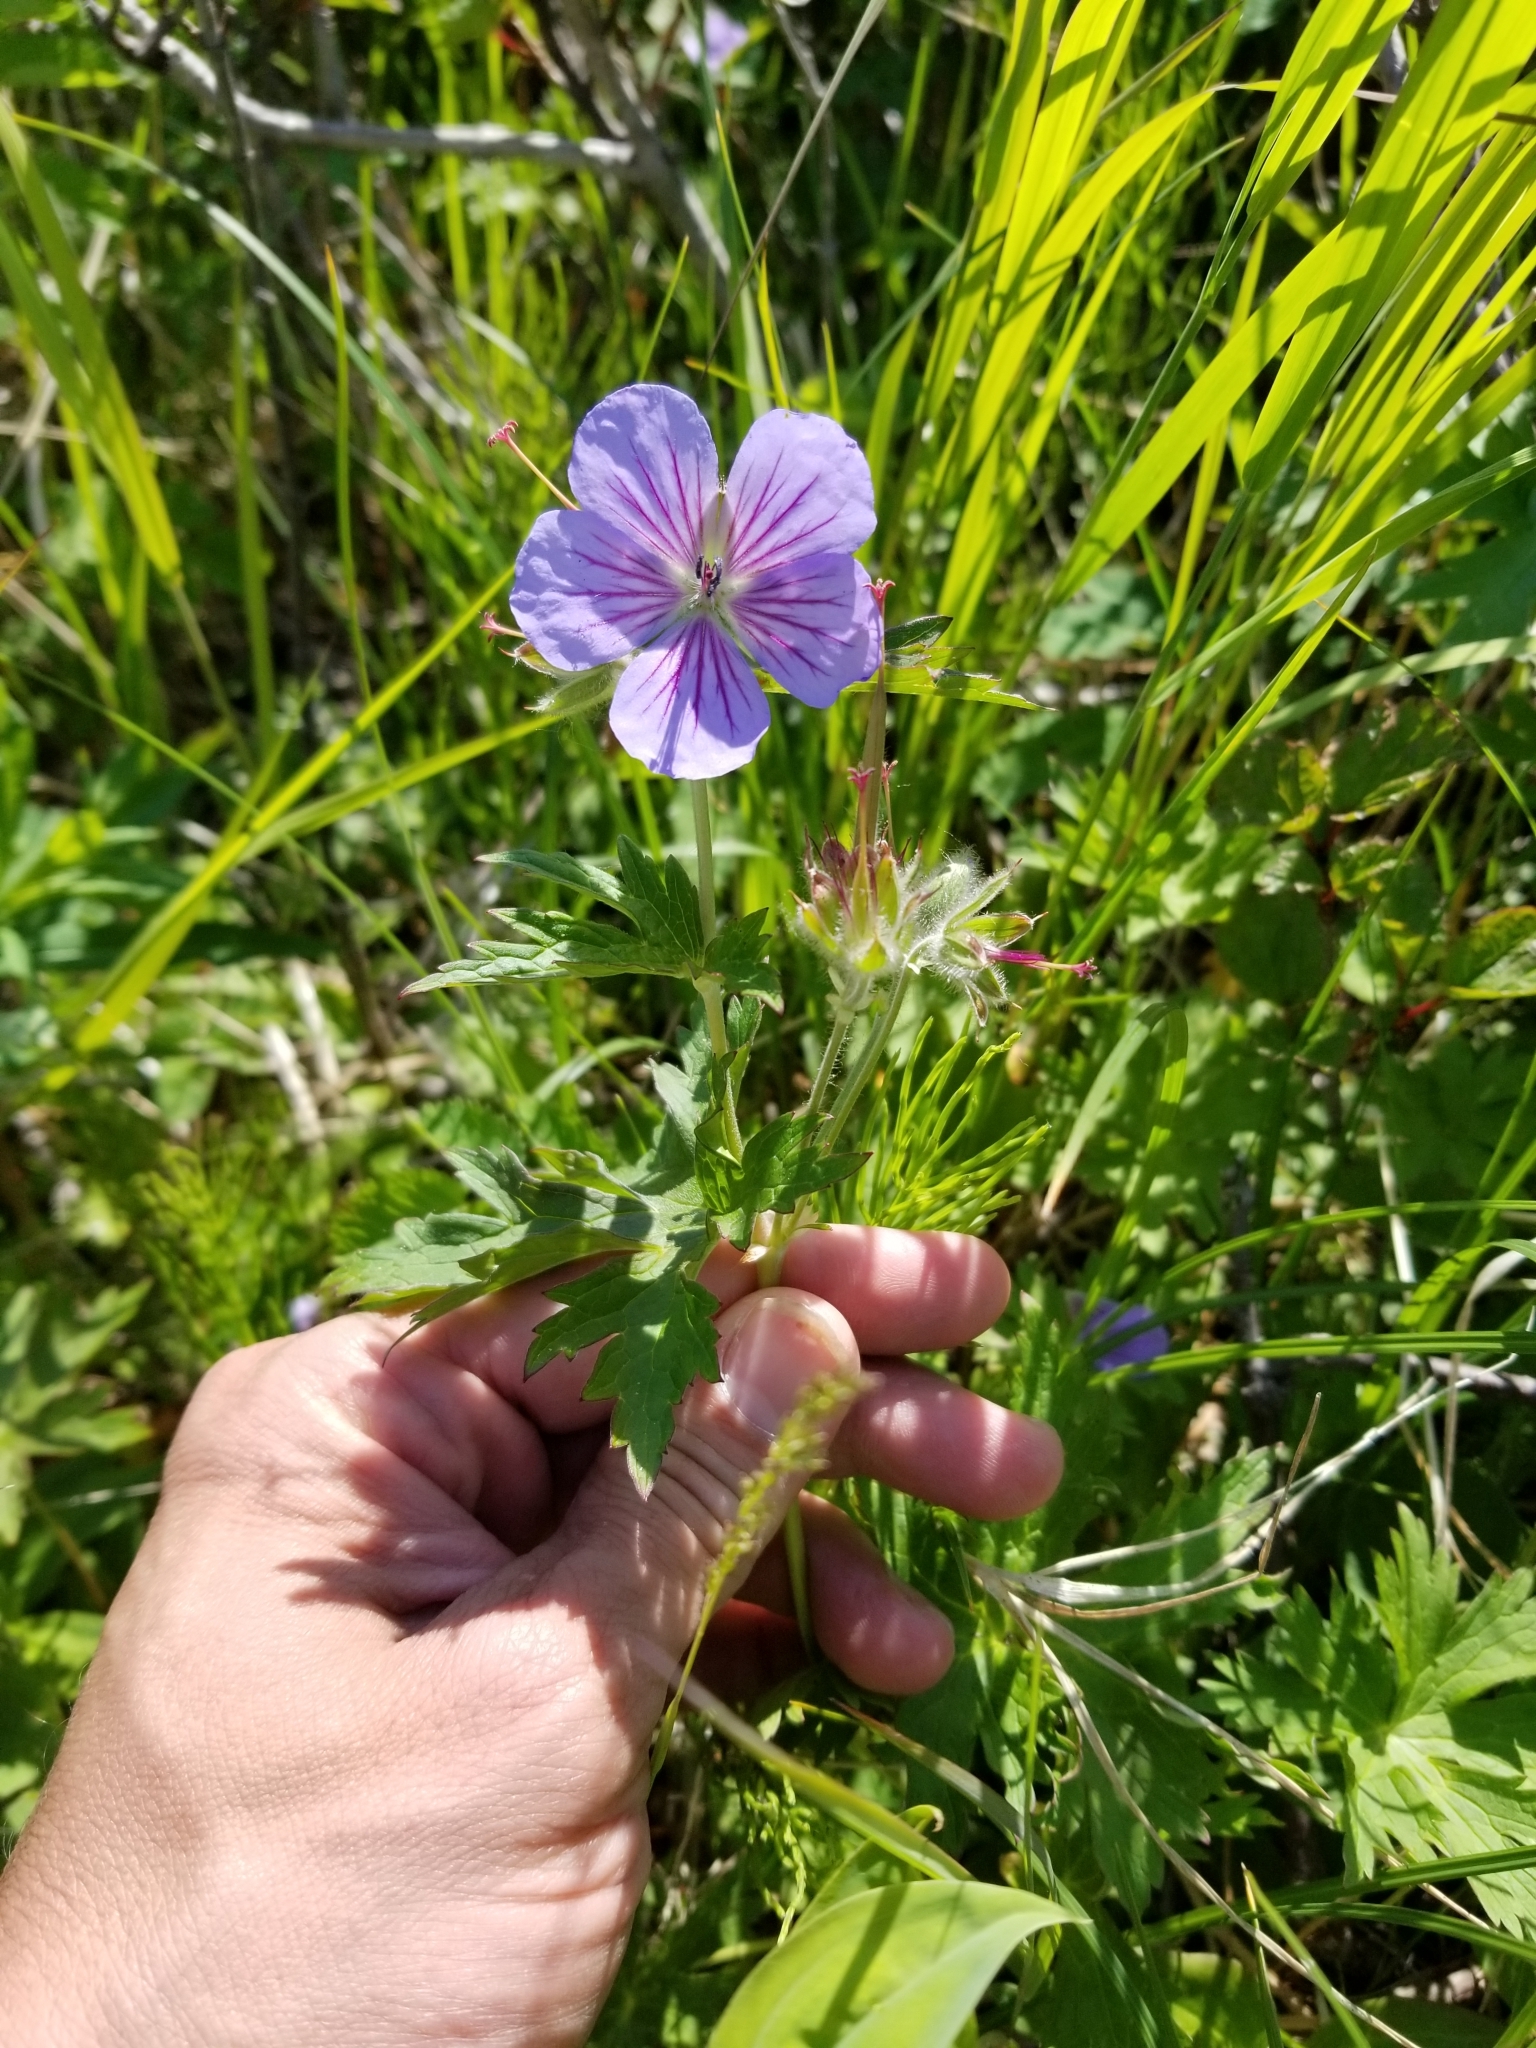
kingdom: Plantae
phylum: Tracheophyta
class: Magnoliopsida
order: Geraniales
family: Geraniaceae
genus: Geranium
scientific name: Geranium erianthum
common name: Northern crane's-bill
